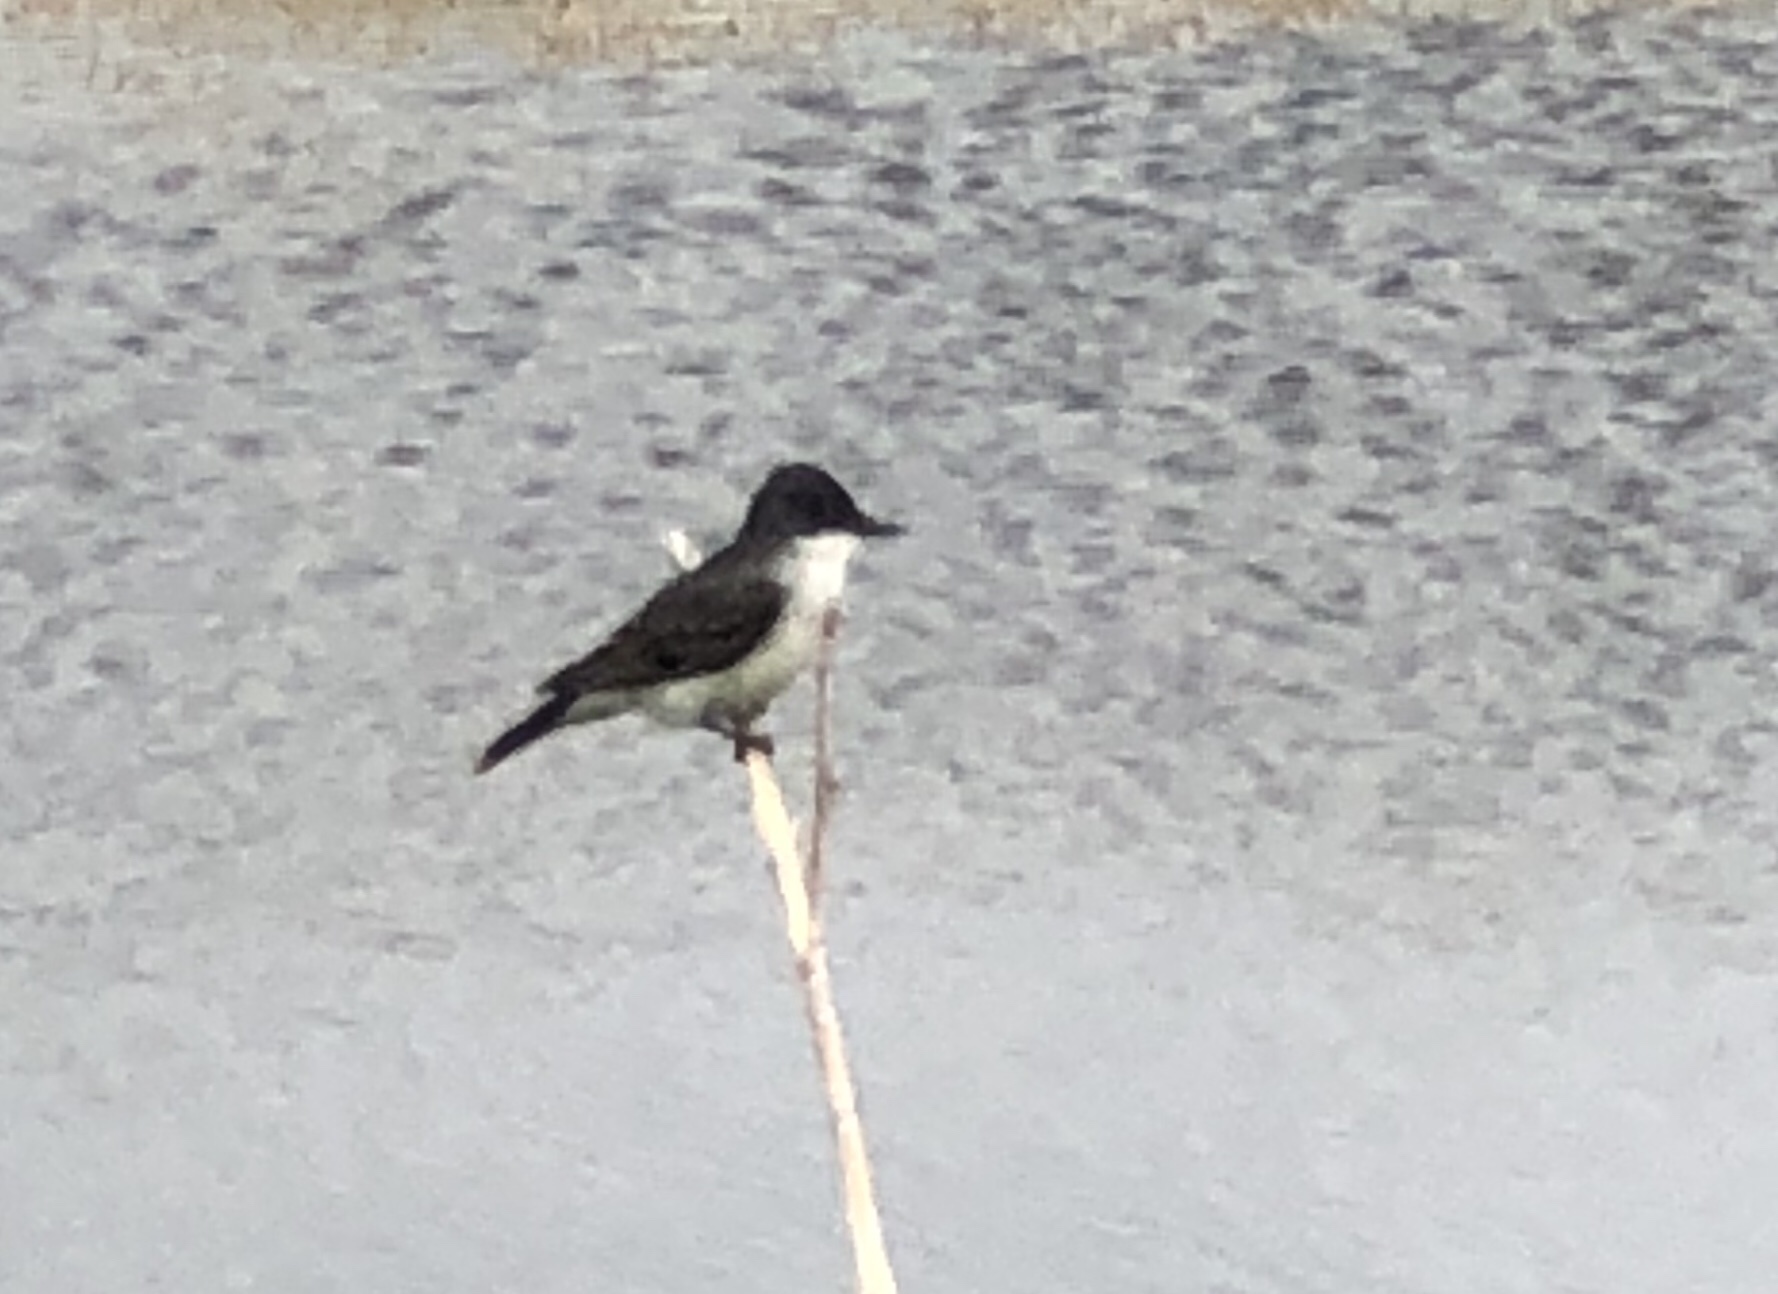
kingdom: Animalia
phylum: Chordata
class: Aves
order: Passeriformes
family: Tyrannidae
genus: Tyrannus
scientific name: Tyrannus tyrannus
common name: Eastern kingbird
